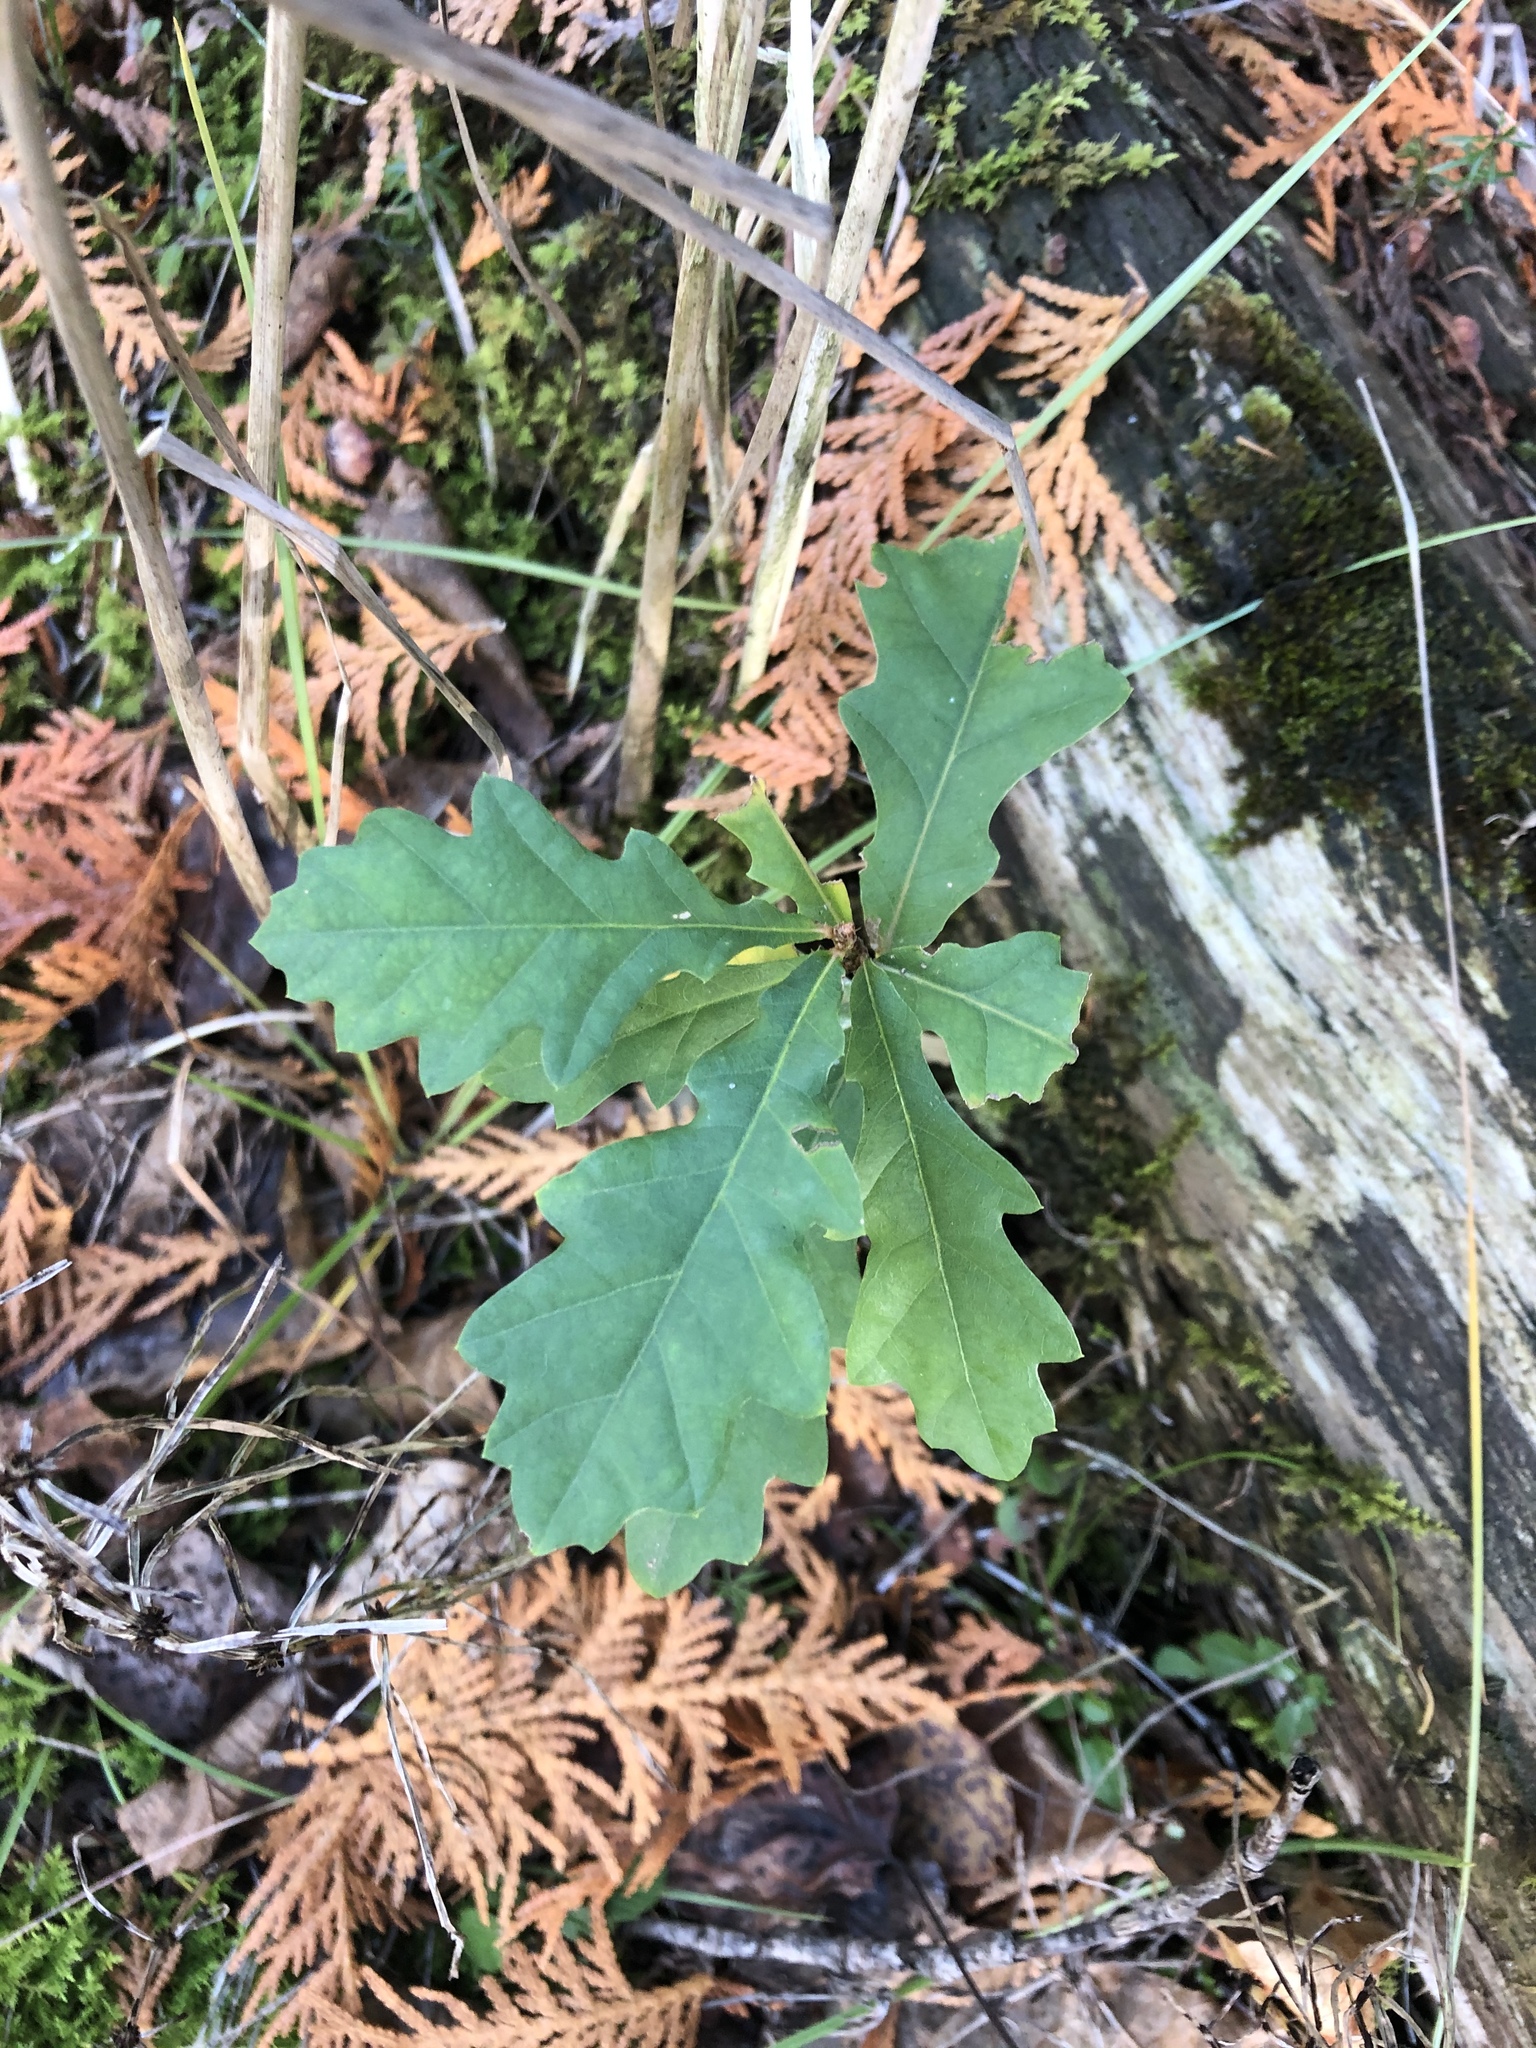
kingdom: Plantae
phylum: Tracheophyta
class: Magnoliopsida
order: Fagales
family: Fagaceae
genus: Quercus
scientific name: Quercus macrocarpa
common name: Bur oak
